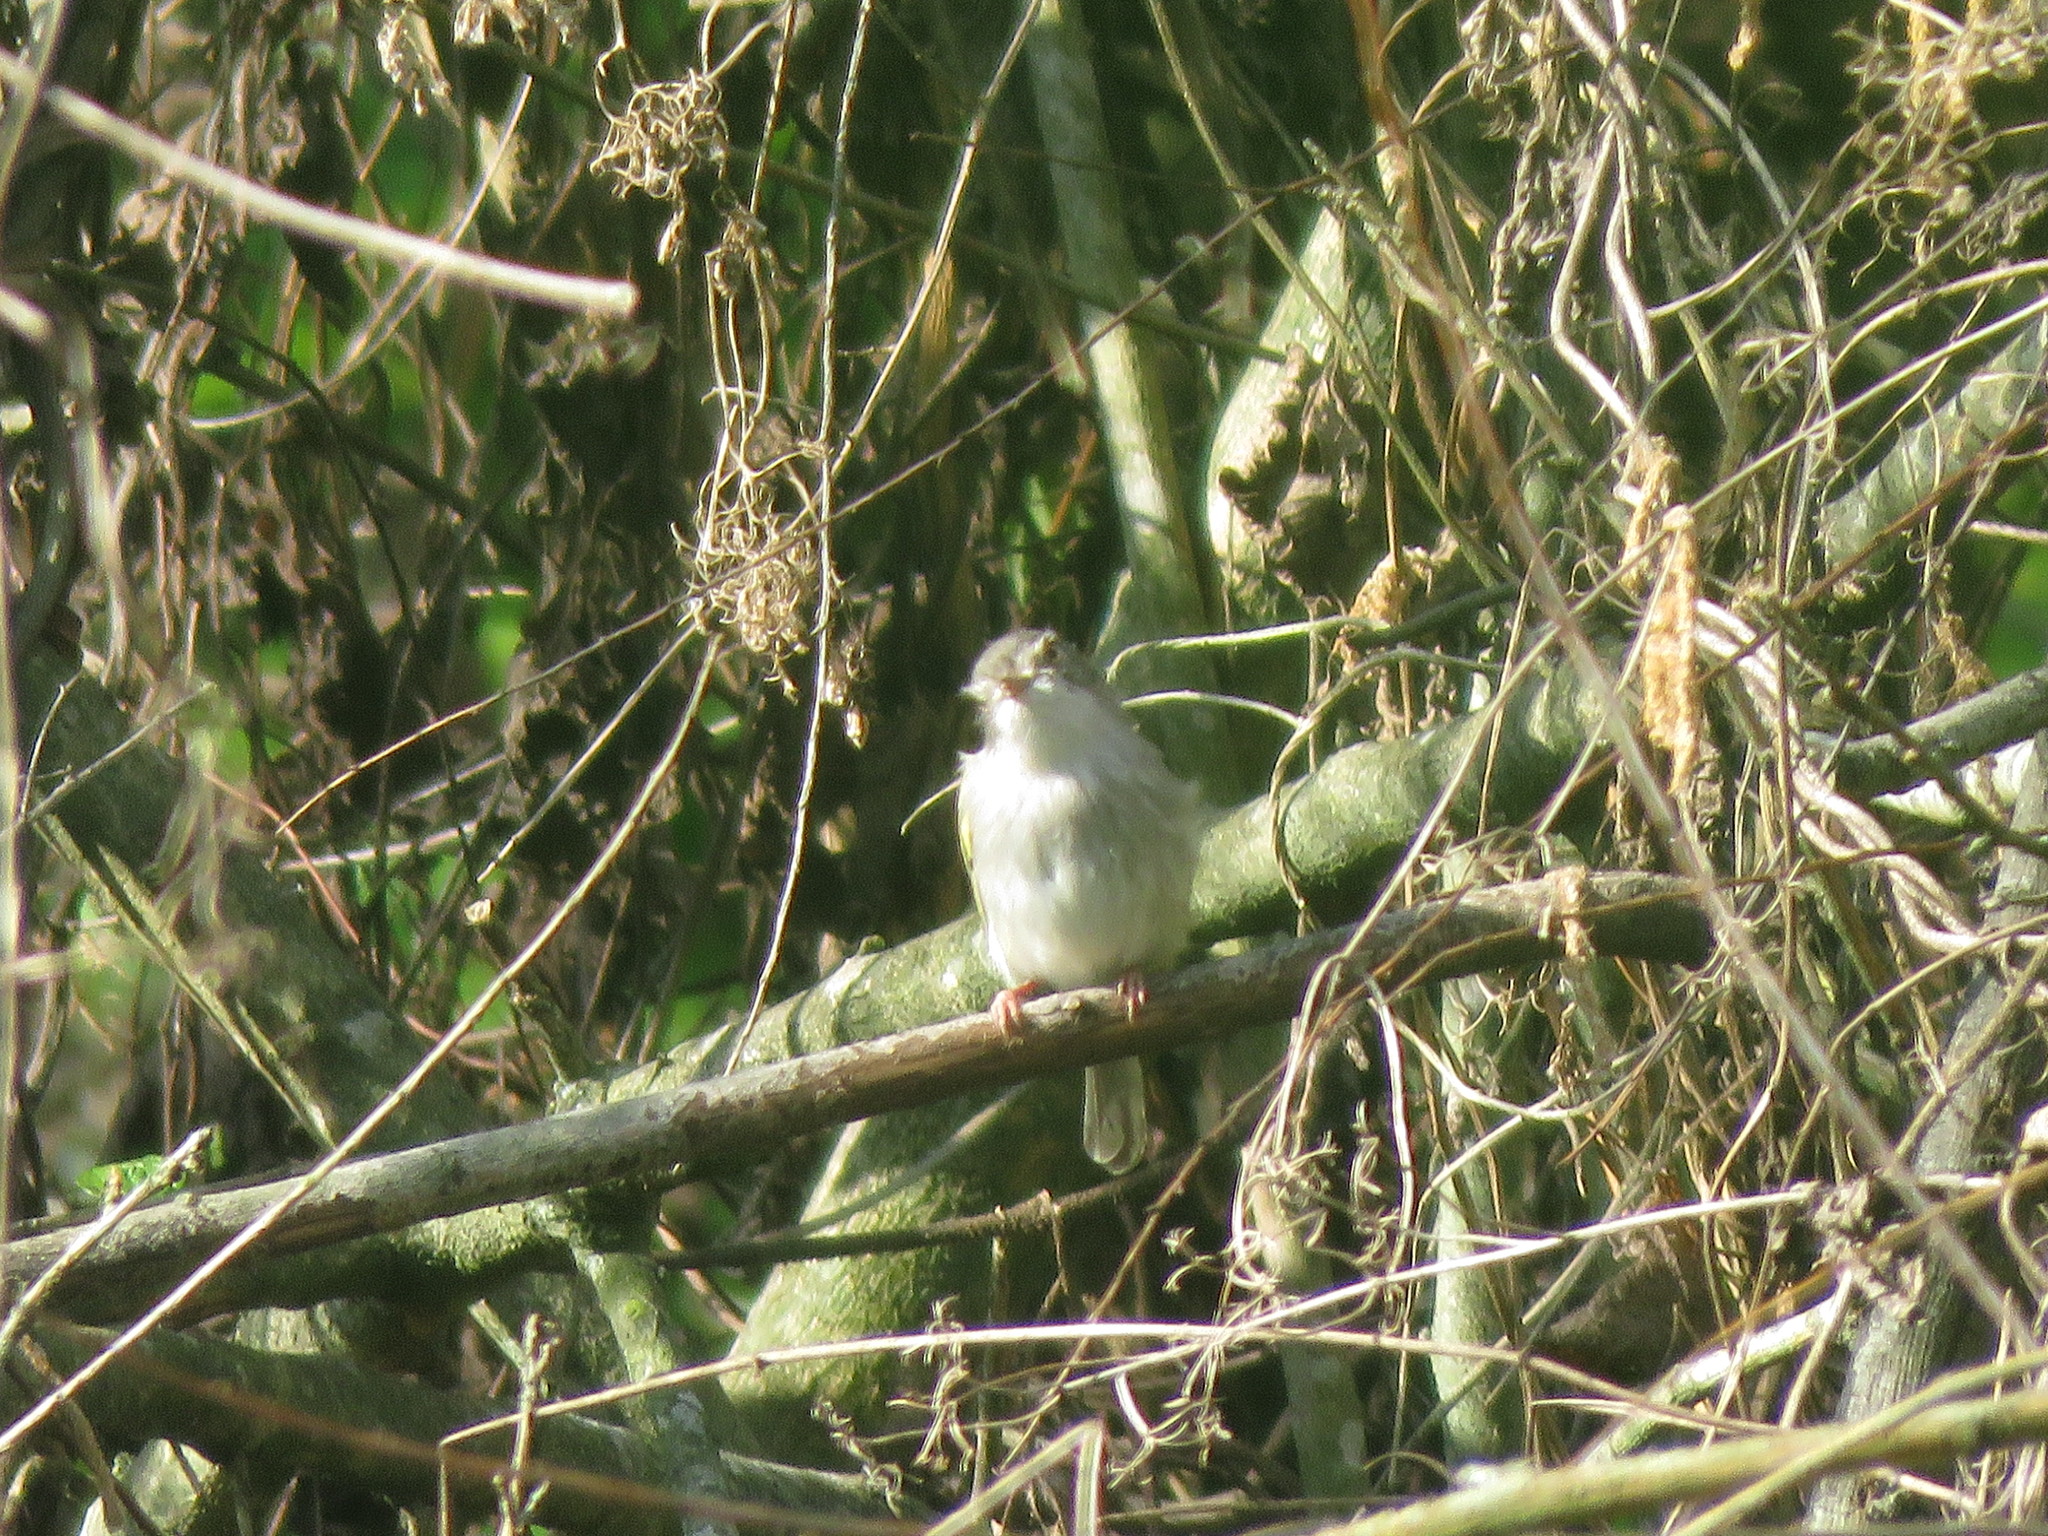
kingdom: Animalia
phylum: Chordata
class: Aves
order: Passeriformes
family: Tyrannidae
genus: Hemitriccus
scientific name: Hemitriccus margaritaceiventer
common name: Pearly-vented tody-tyrant
